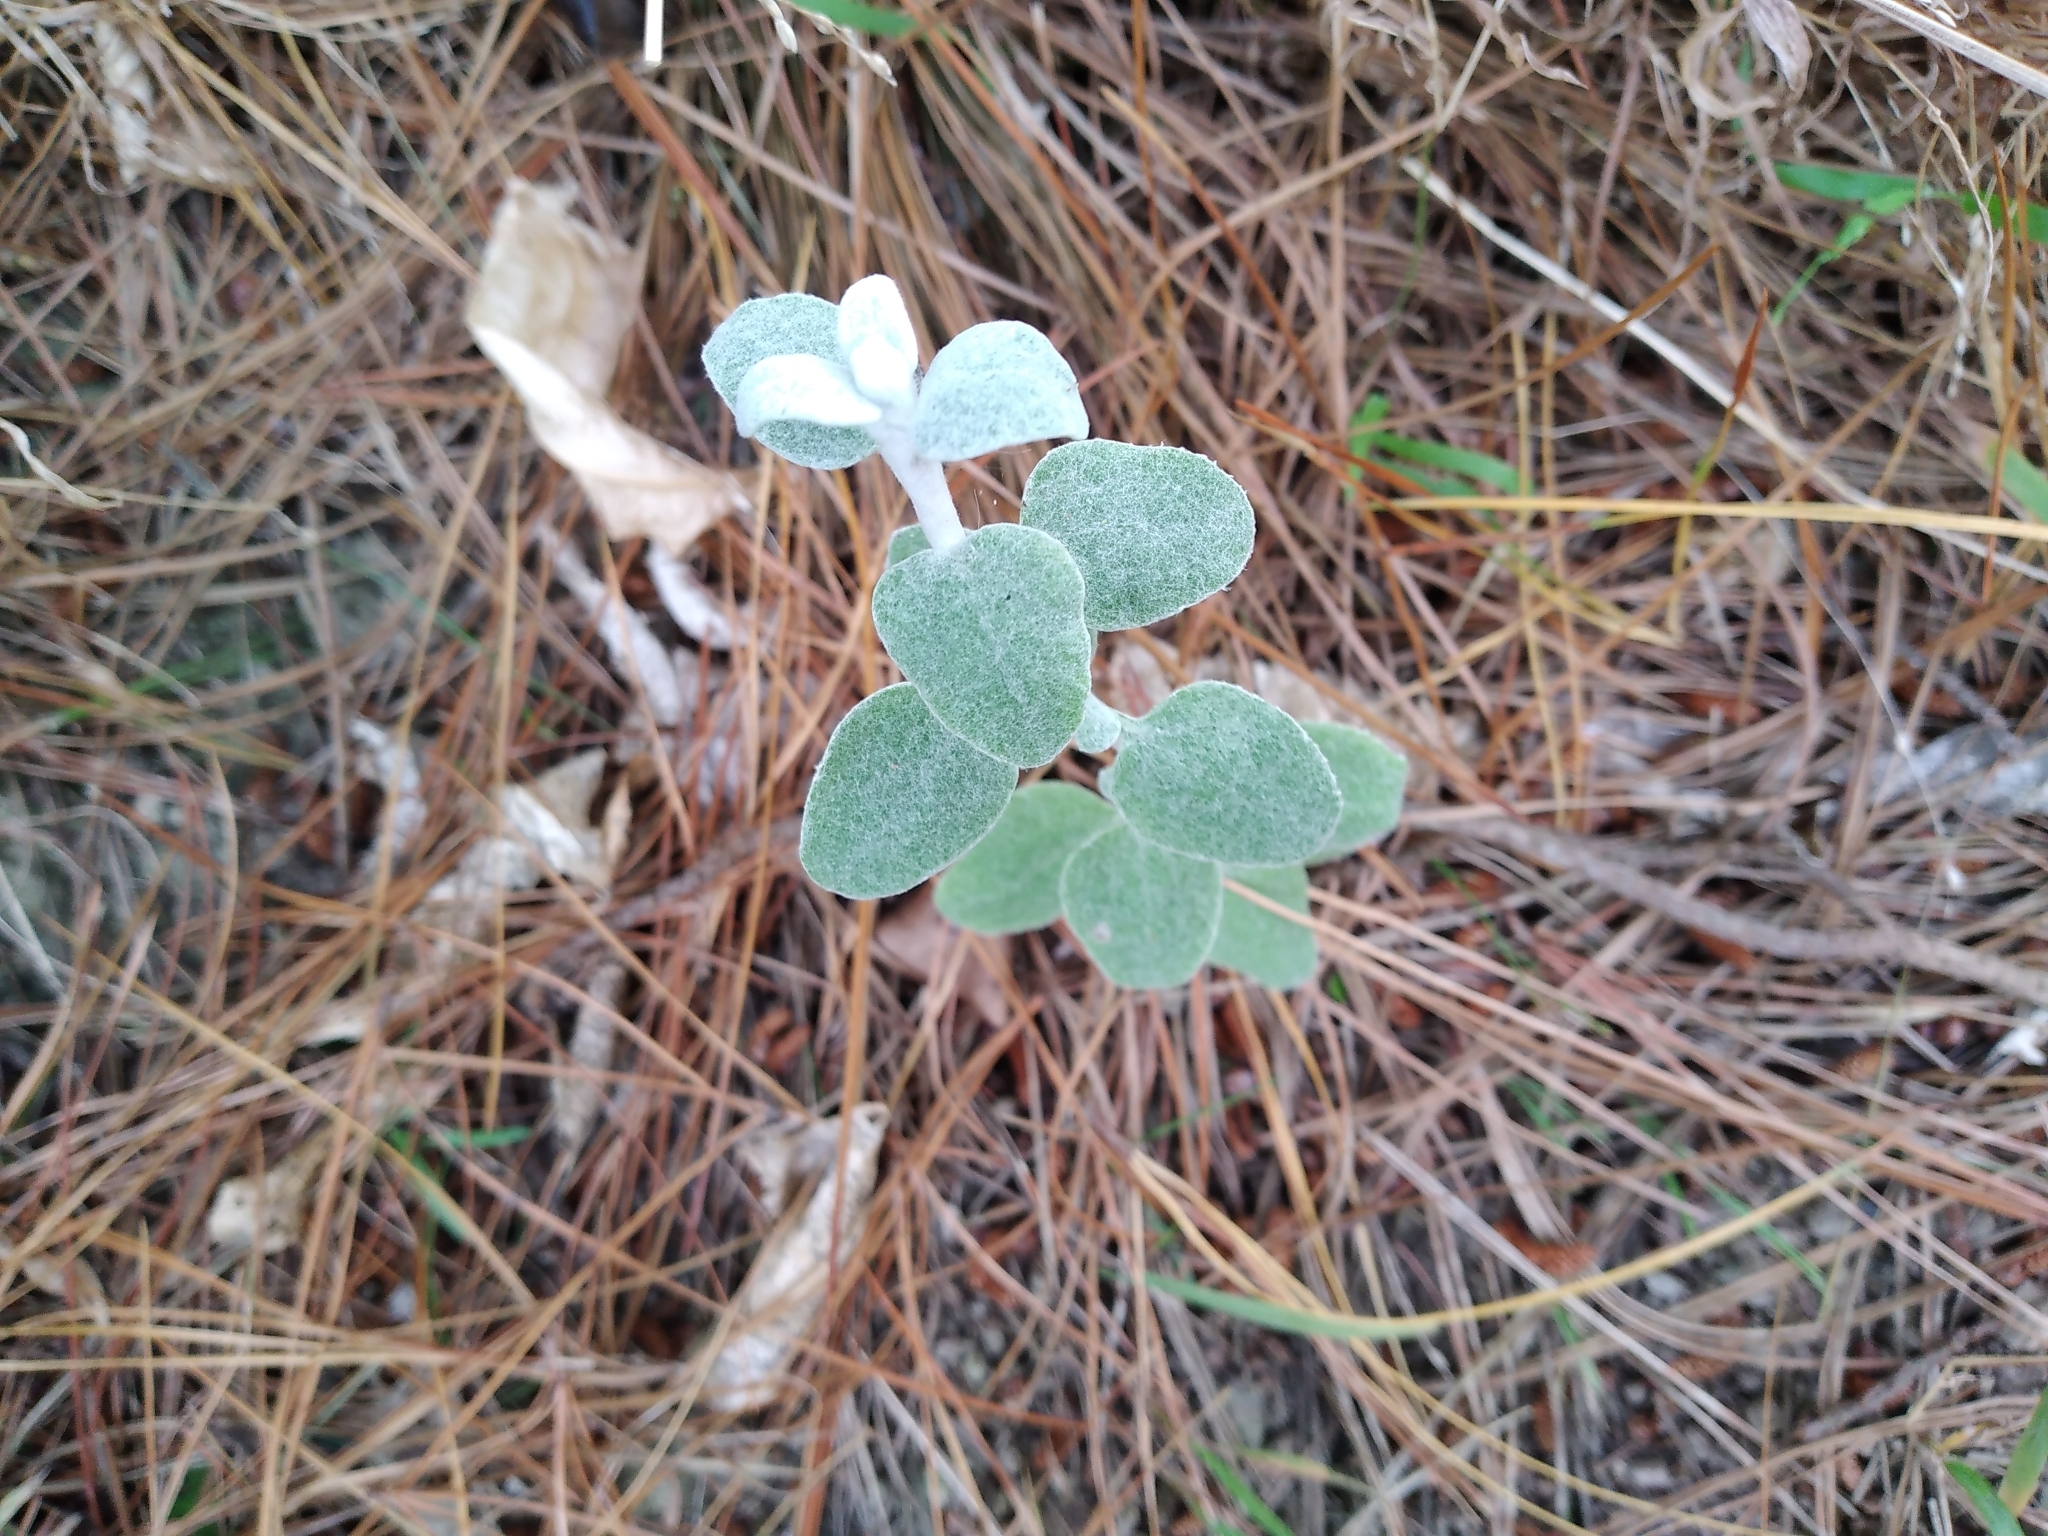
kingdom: Plantae
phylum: Tracheophyta
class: Magnoliopsida
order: Asterales
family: Asteraceae
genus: Helichrysum
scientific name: Helichrysum petiolare
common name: Licorice-plant
